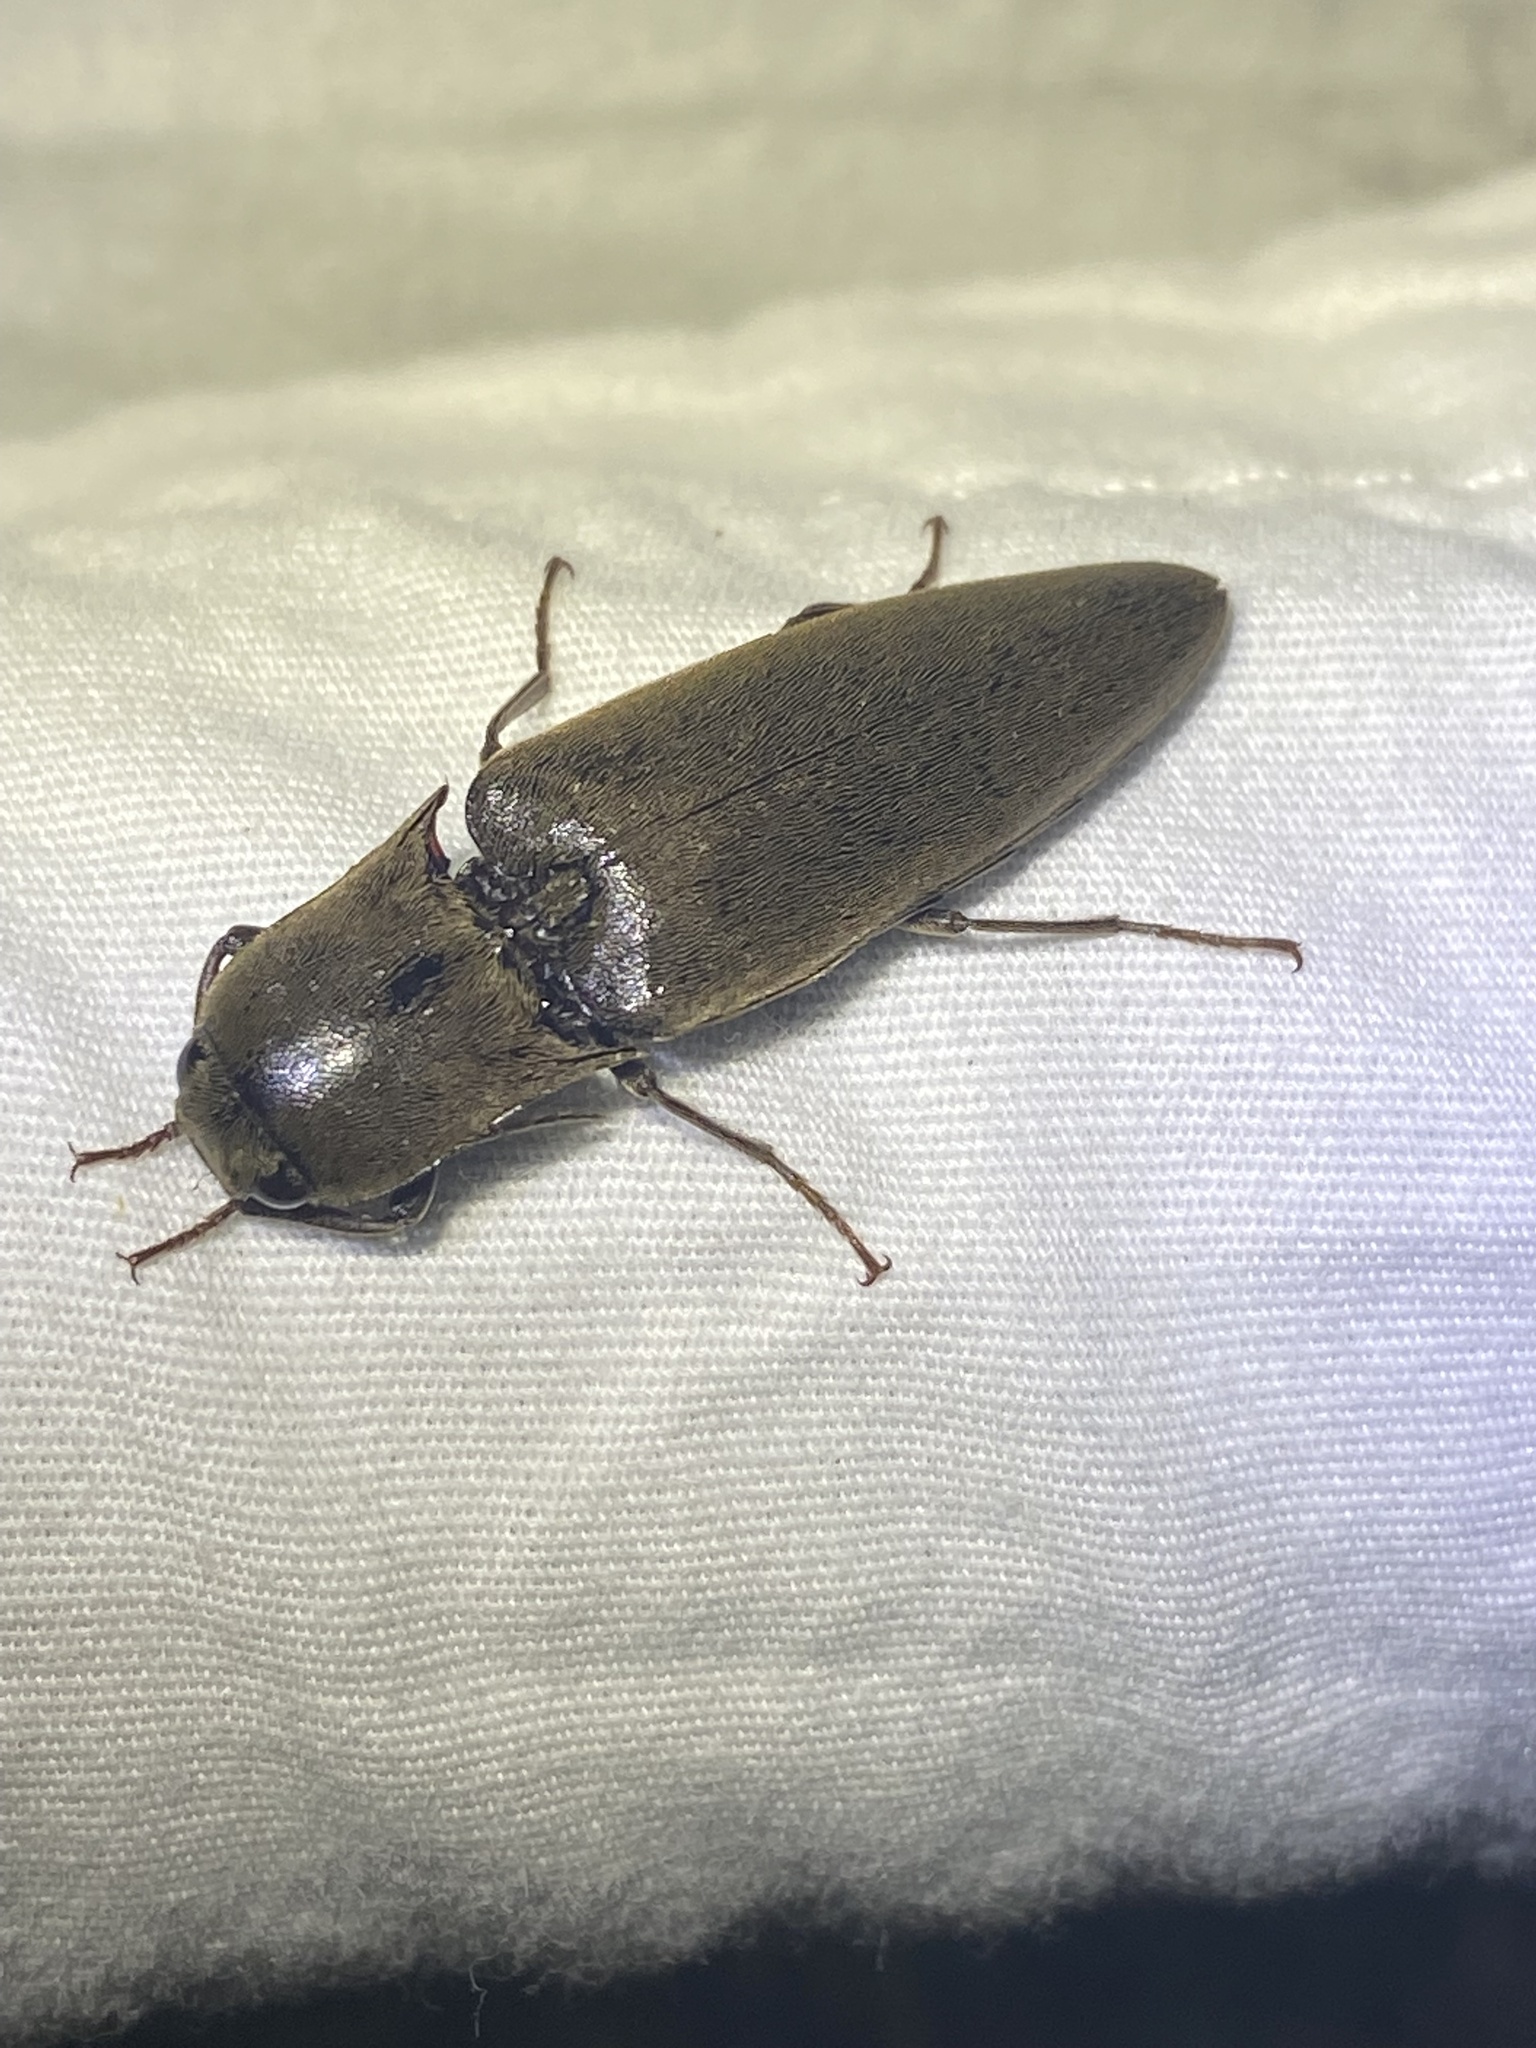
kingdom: Animalia
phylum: Arthropoda
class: Insecta
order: Coleoptera
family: Elateridae
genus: Orthostethus
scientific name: Orthostethus infuscatus
